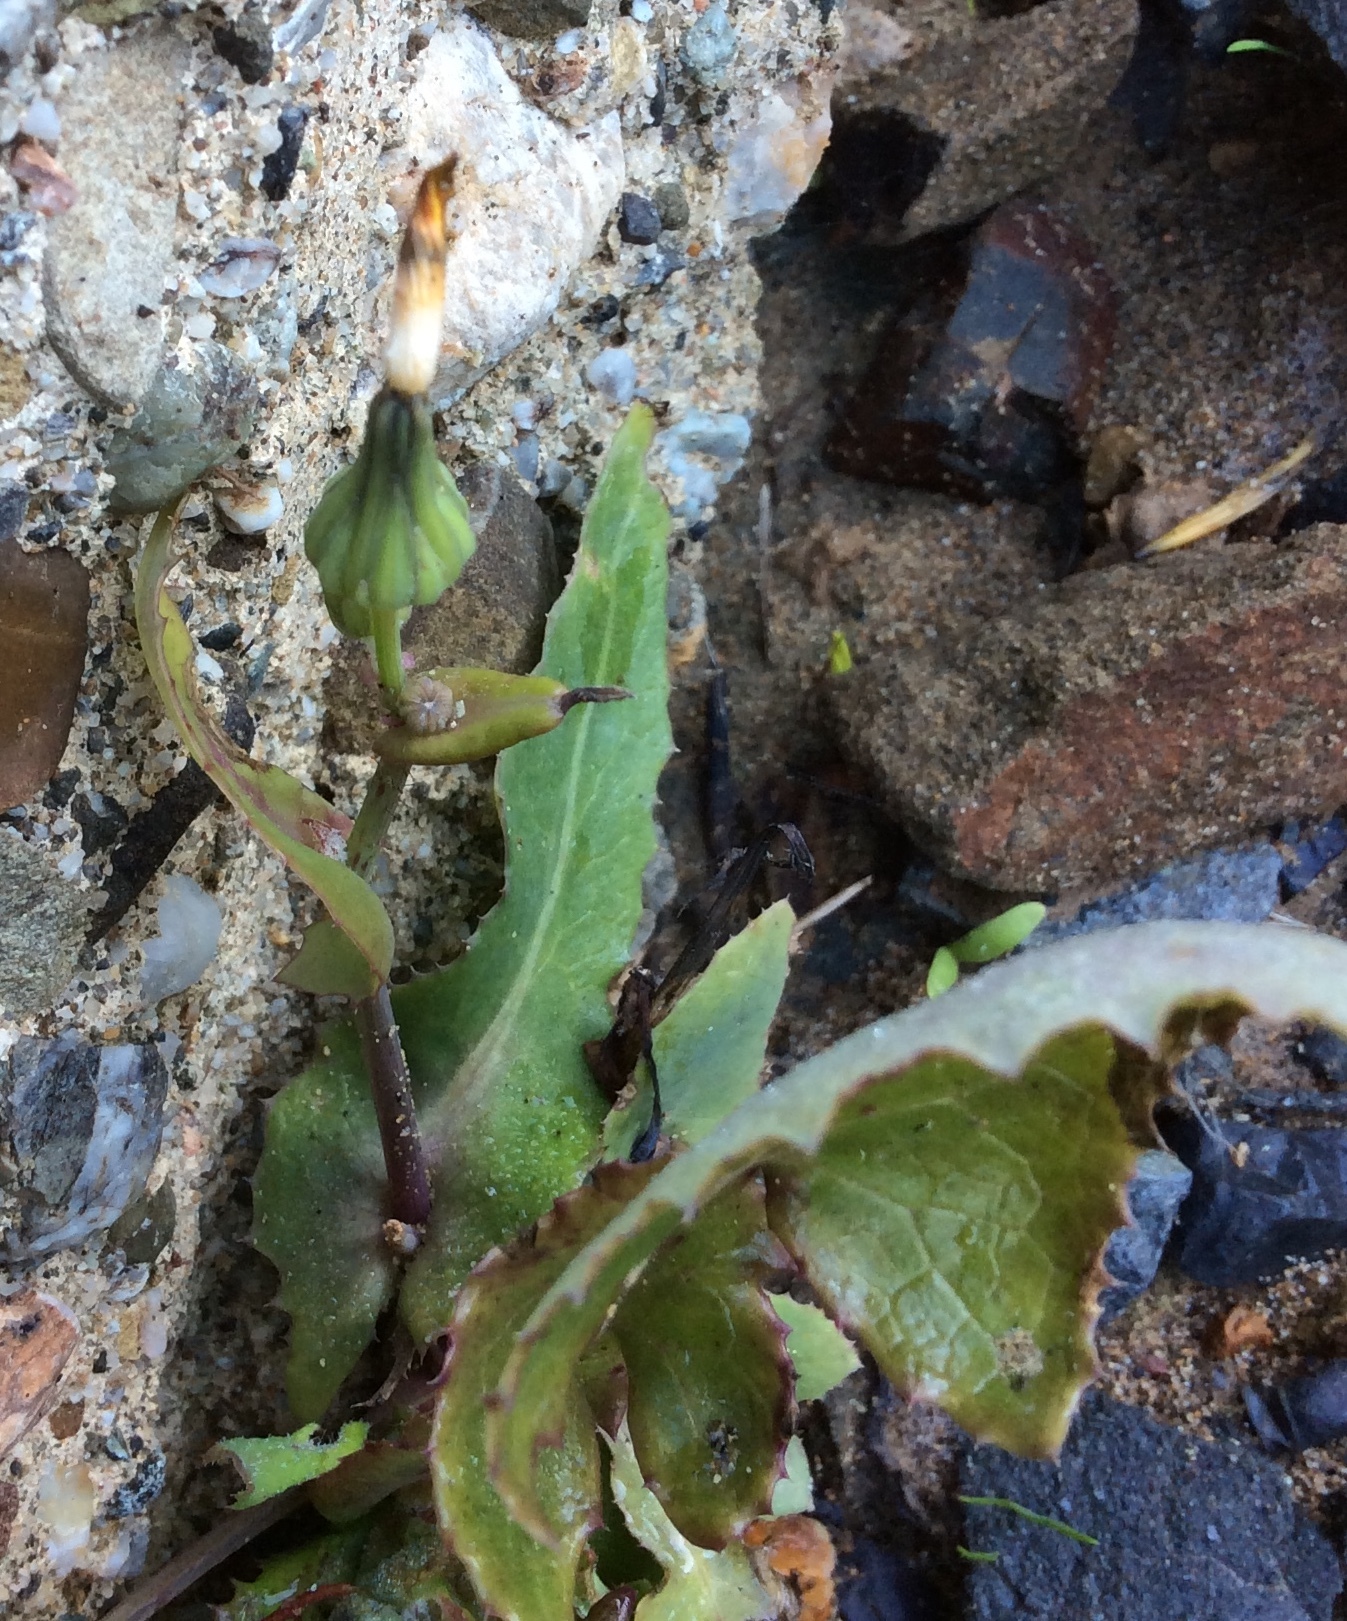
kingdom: Plantae
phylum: Tracheophyta
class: Magnoliopsida
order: Asterales
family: Asteraceae
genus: Sonchus
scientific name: Sonchus oleraceus
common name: Common sowthistle
